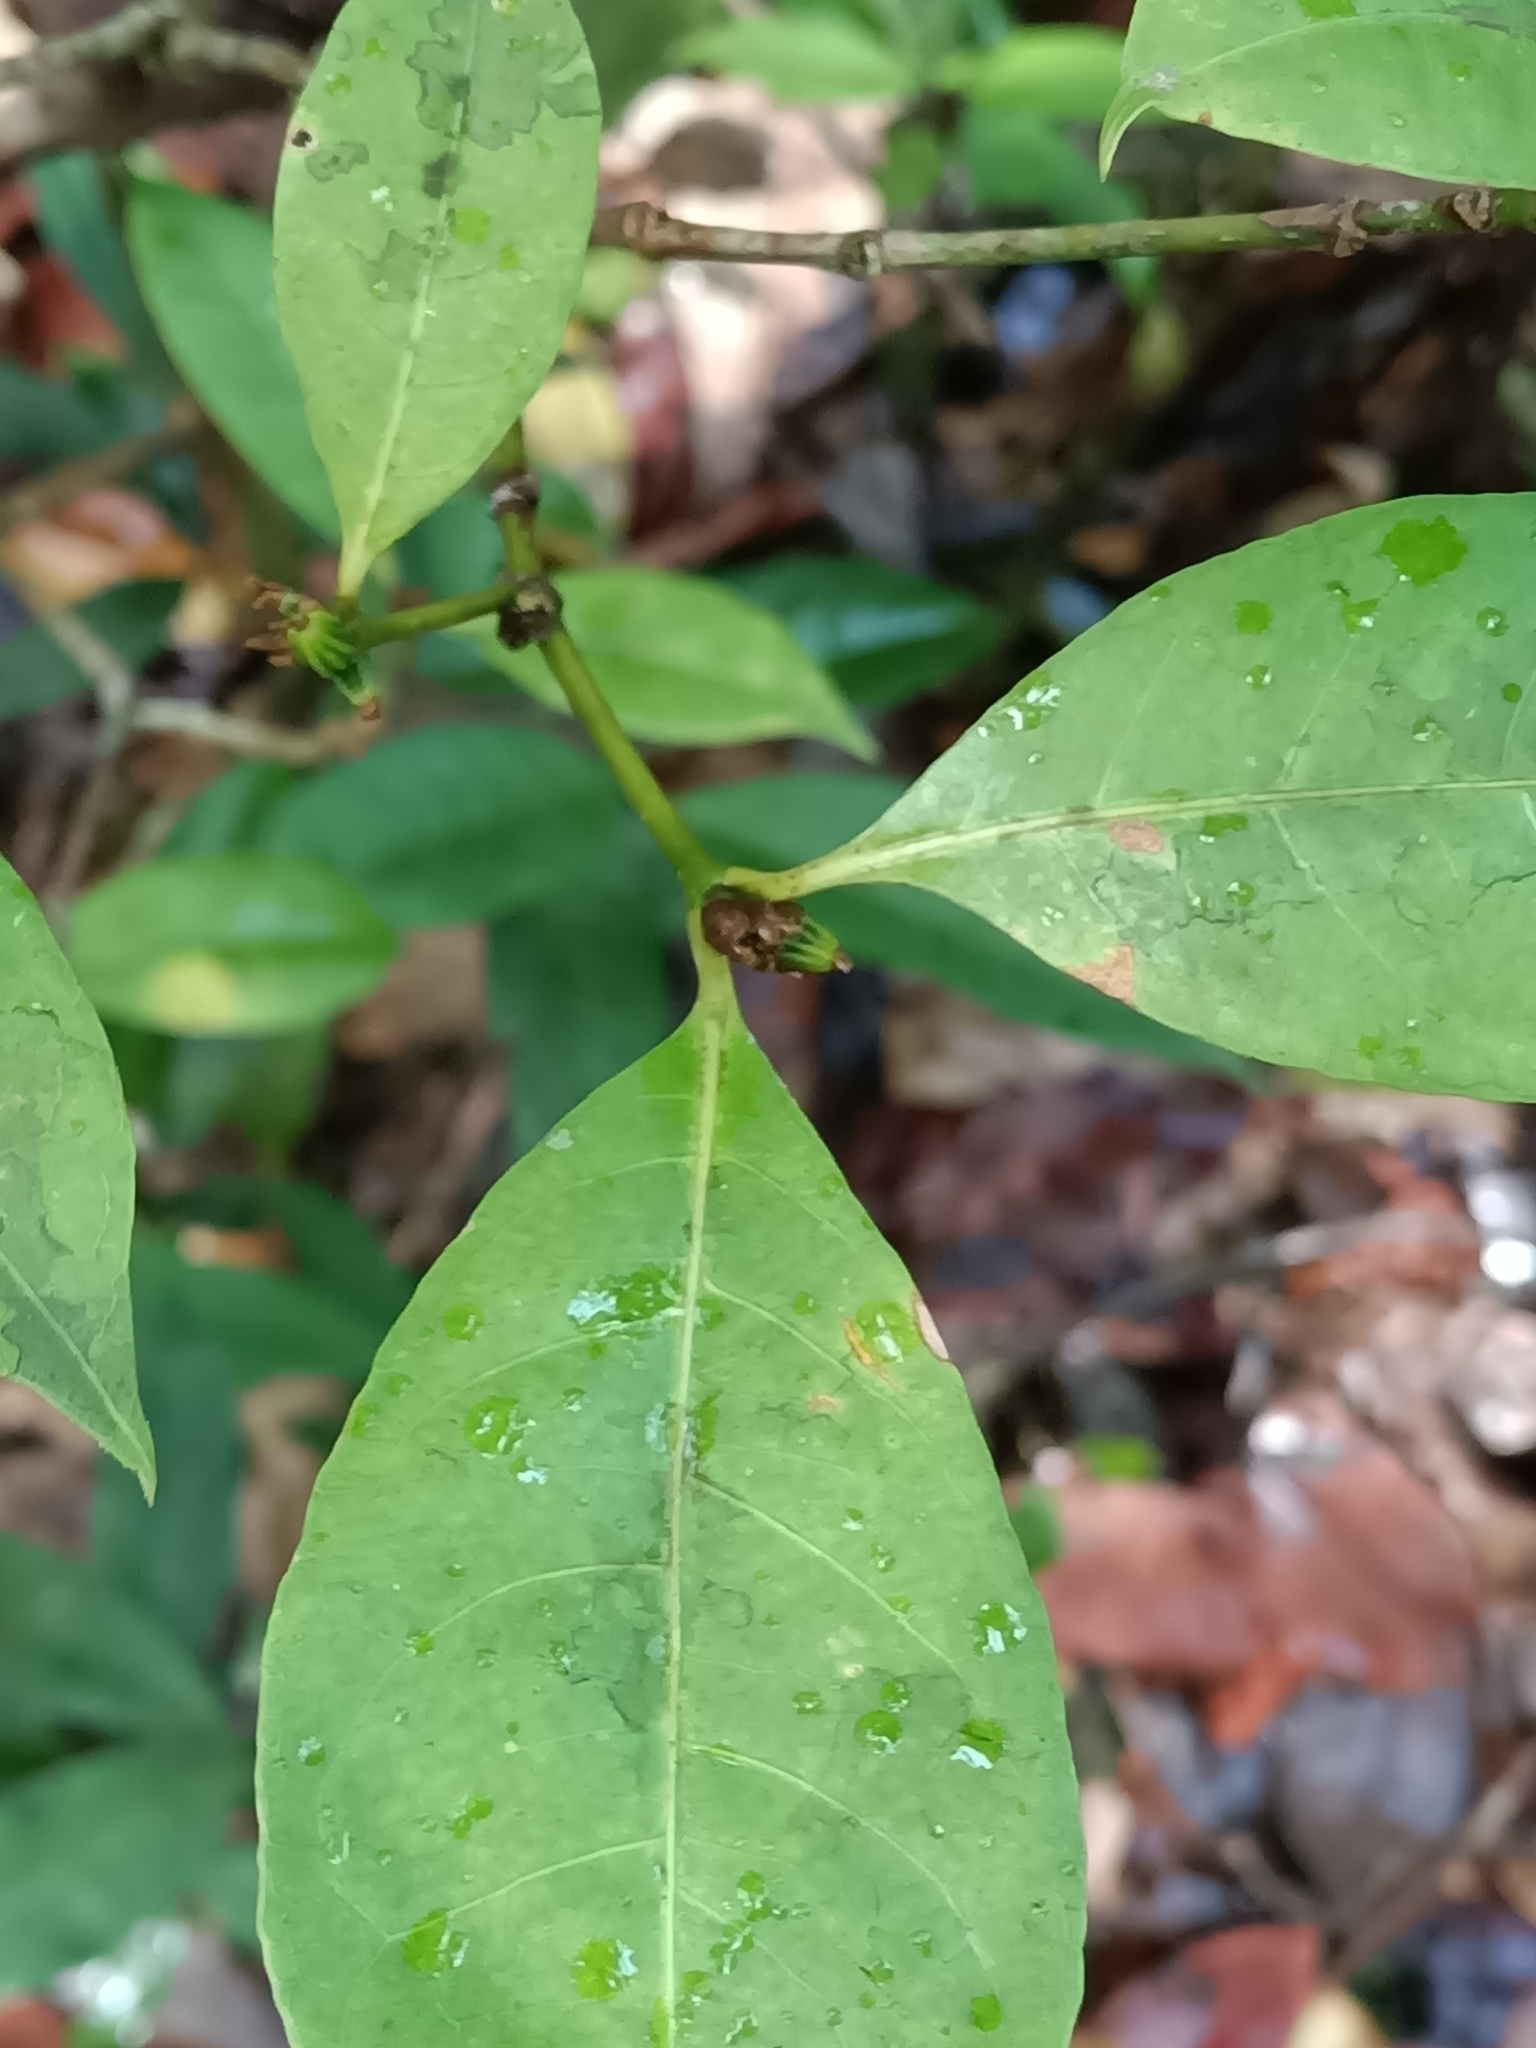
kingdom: Plantae
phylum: Tracheophyta
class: Magnoliopsida
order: Gentianales
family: Rubiaceae
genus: Eumachia
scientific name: Eumachia kappleri
